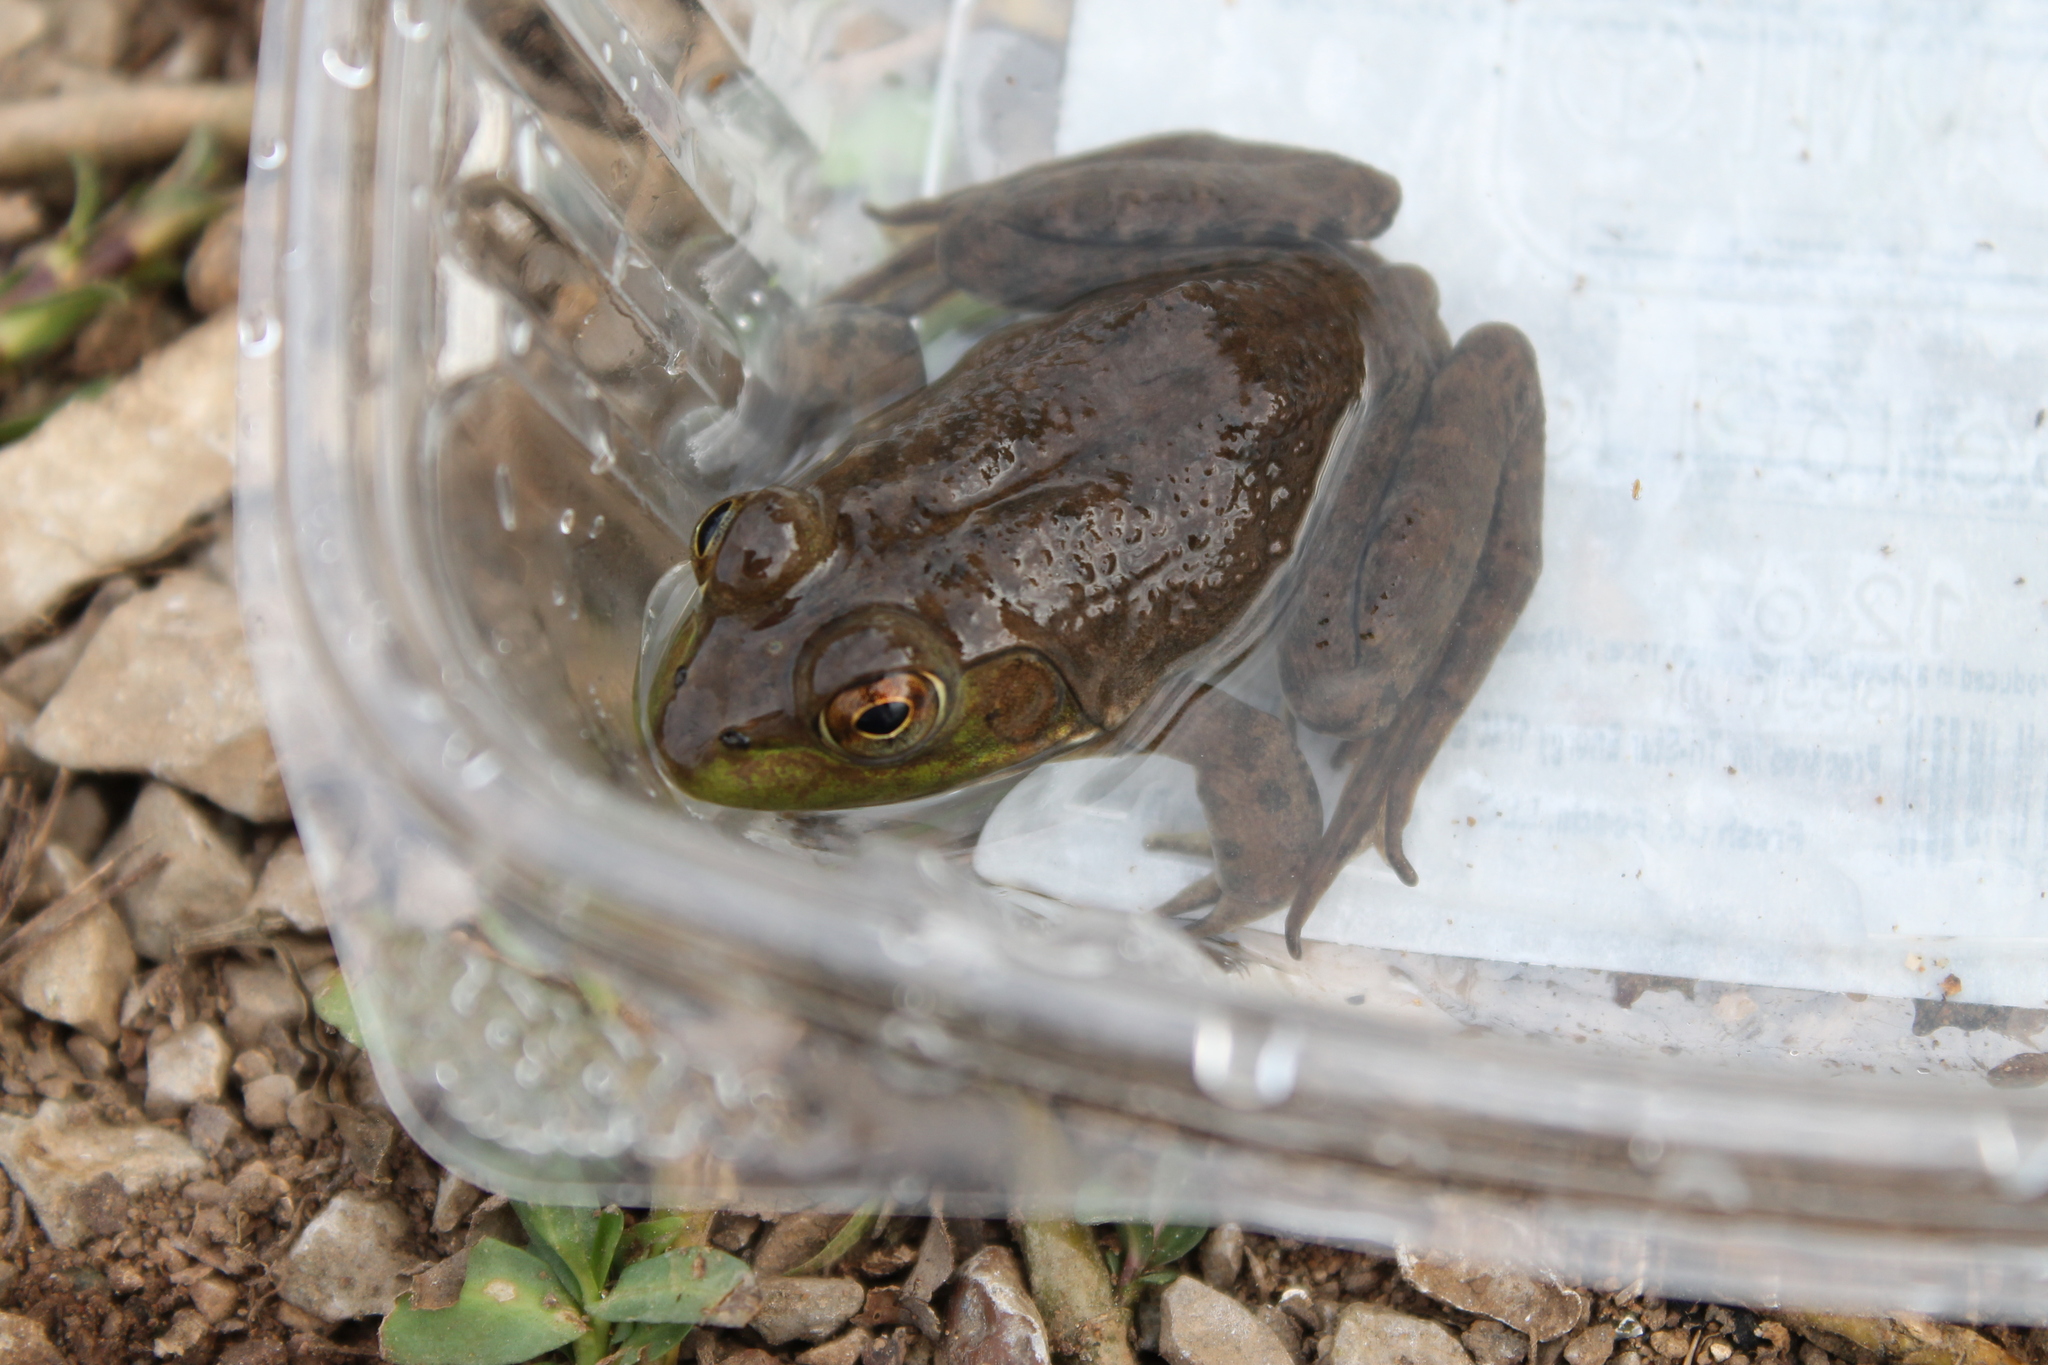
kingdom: Animalia
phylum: Chordata
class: Amphibia
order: Anura
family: Ranidae
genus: Lithobates
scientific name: Lithobates catesbeianus
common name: American bullfrog
